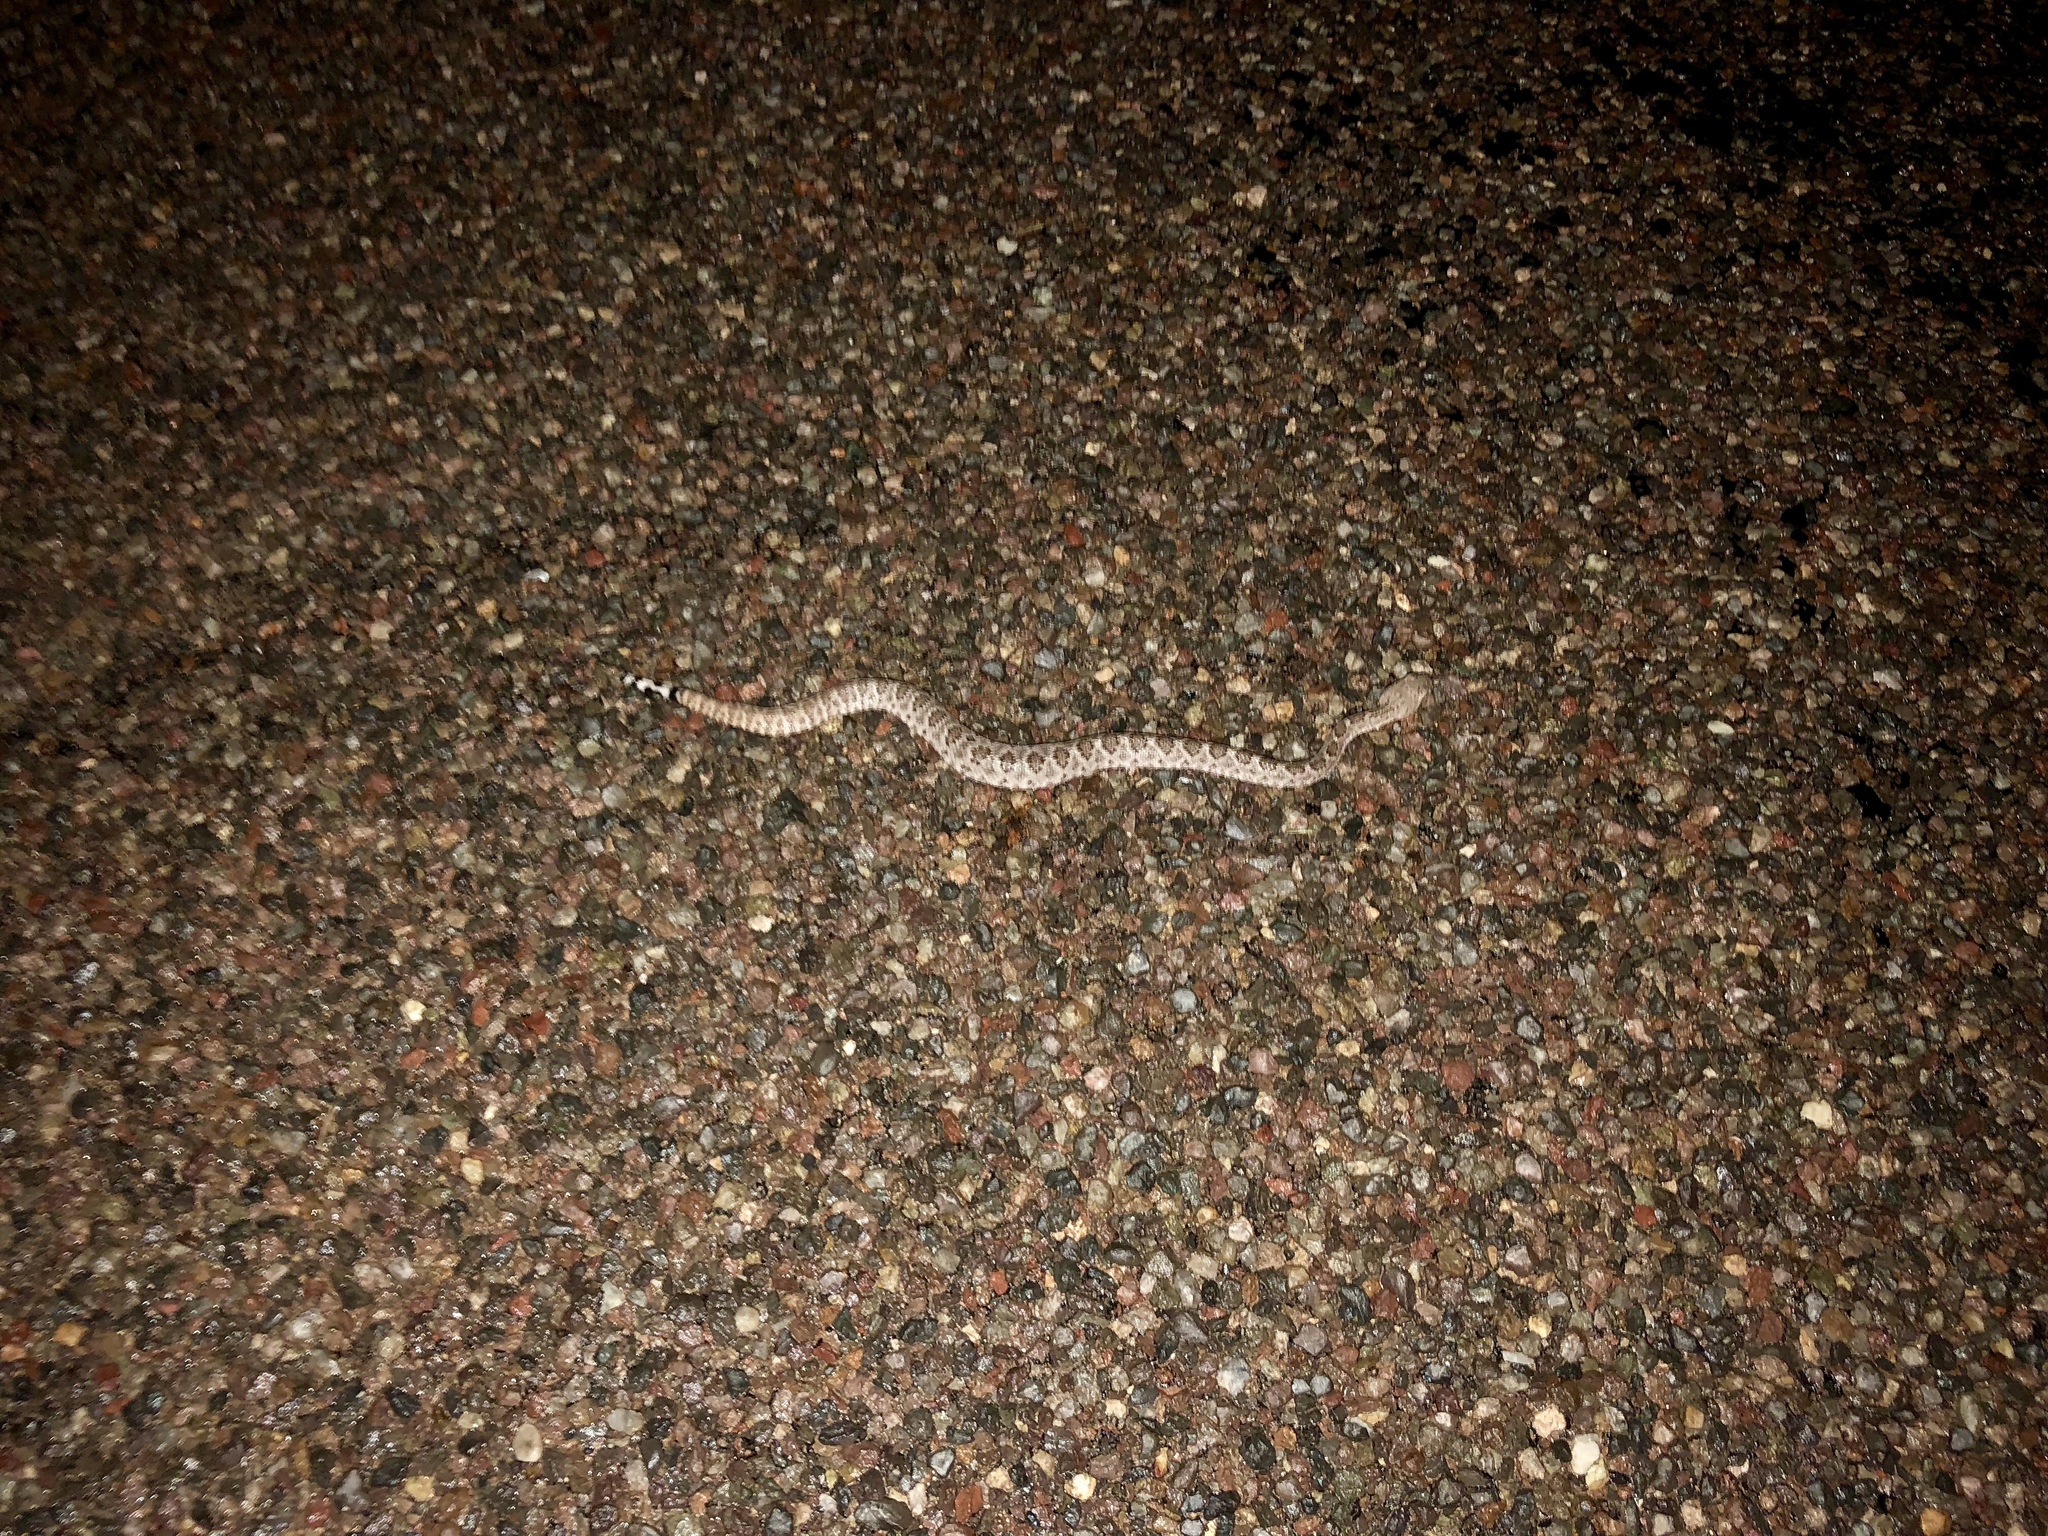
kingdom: Animalia
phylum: Chordata
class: Squamata
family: Viperidae
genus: Crotalus
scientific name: Crotalus atrox
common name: Western diamond-backed rattlesnake
